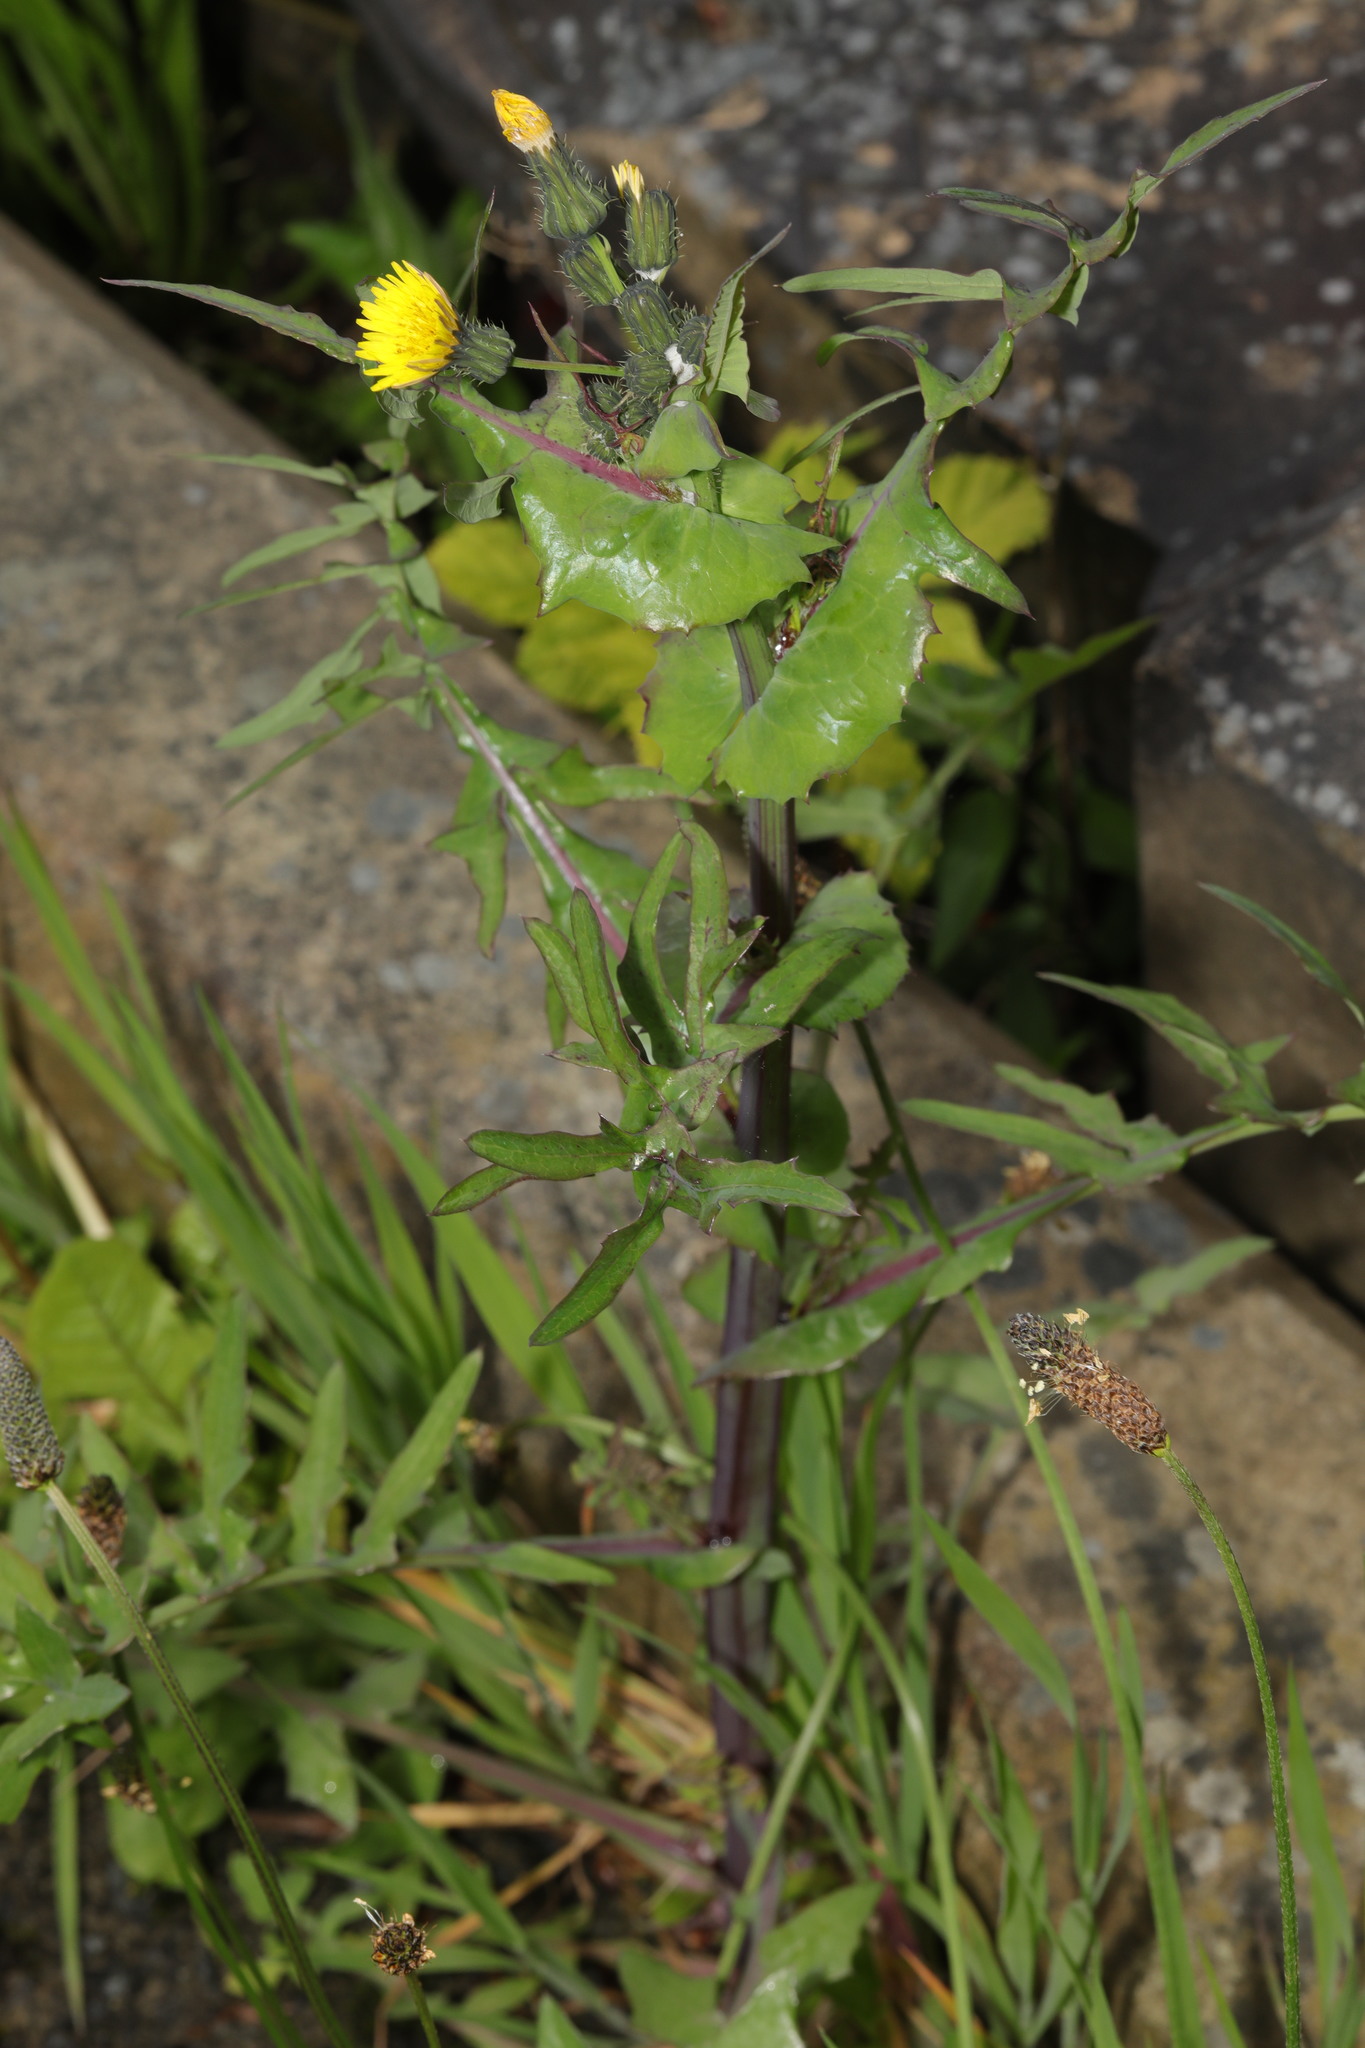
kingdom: Plantae
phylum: Tracheophyta
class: Magnoliopsida
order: Asterales
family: Asteraceae
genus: Sonchus
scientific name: Sonchus oleraceus
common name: Common sowthistle
